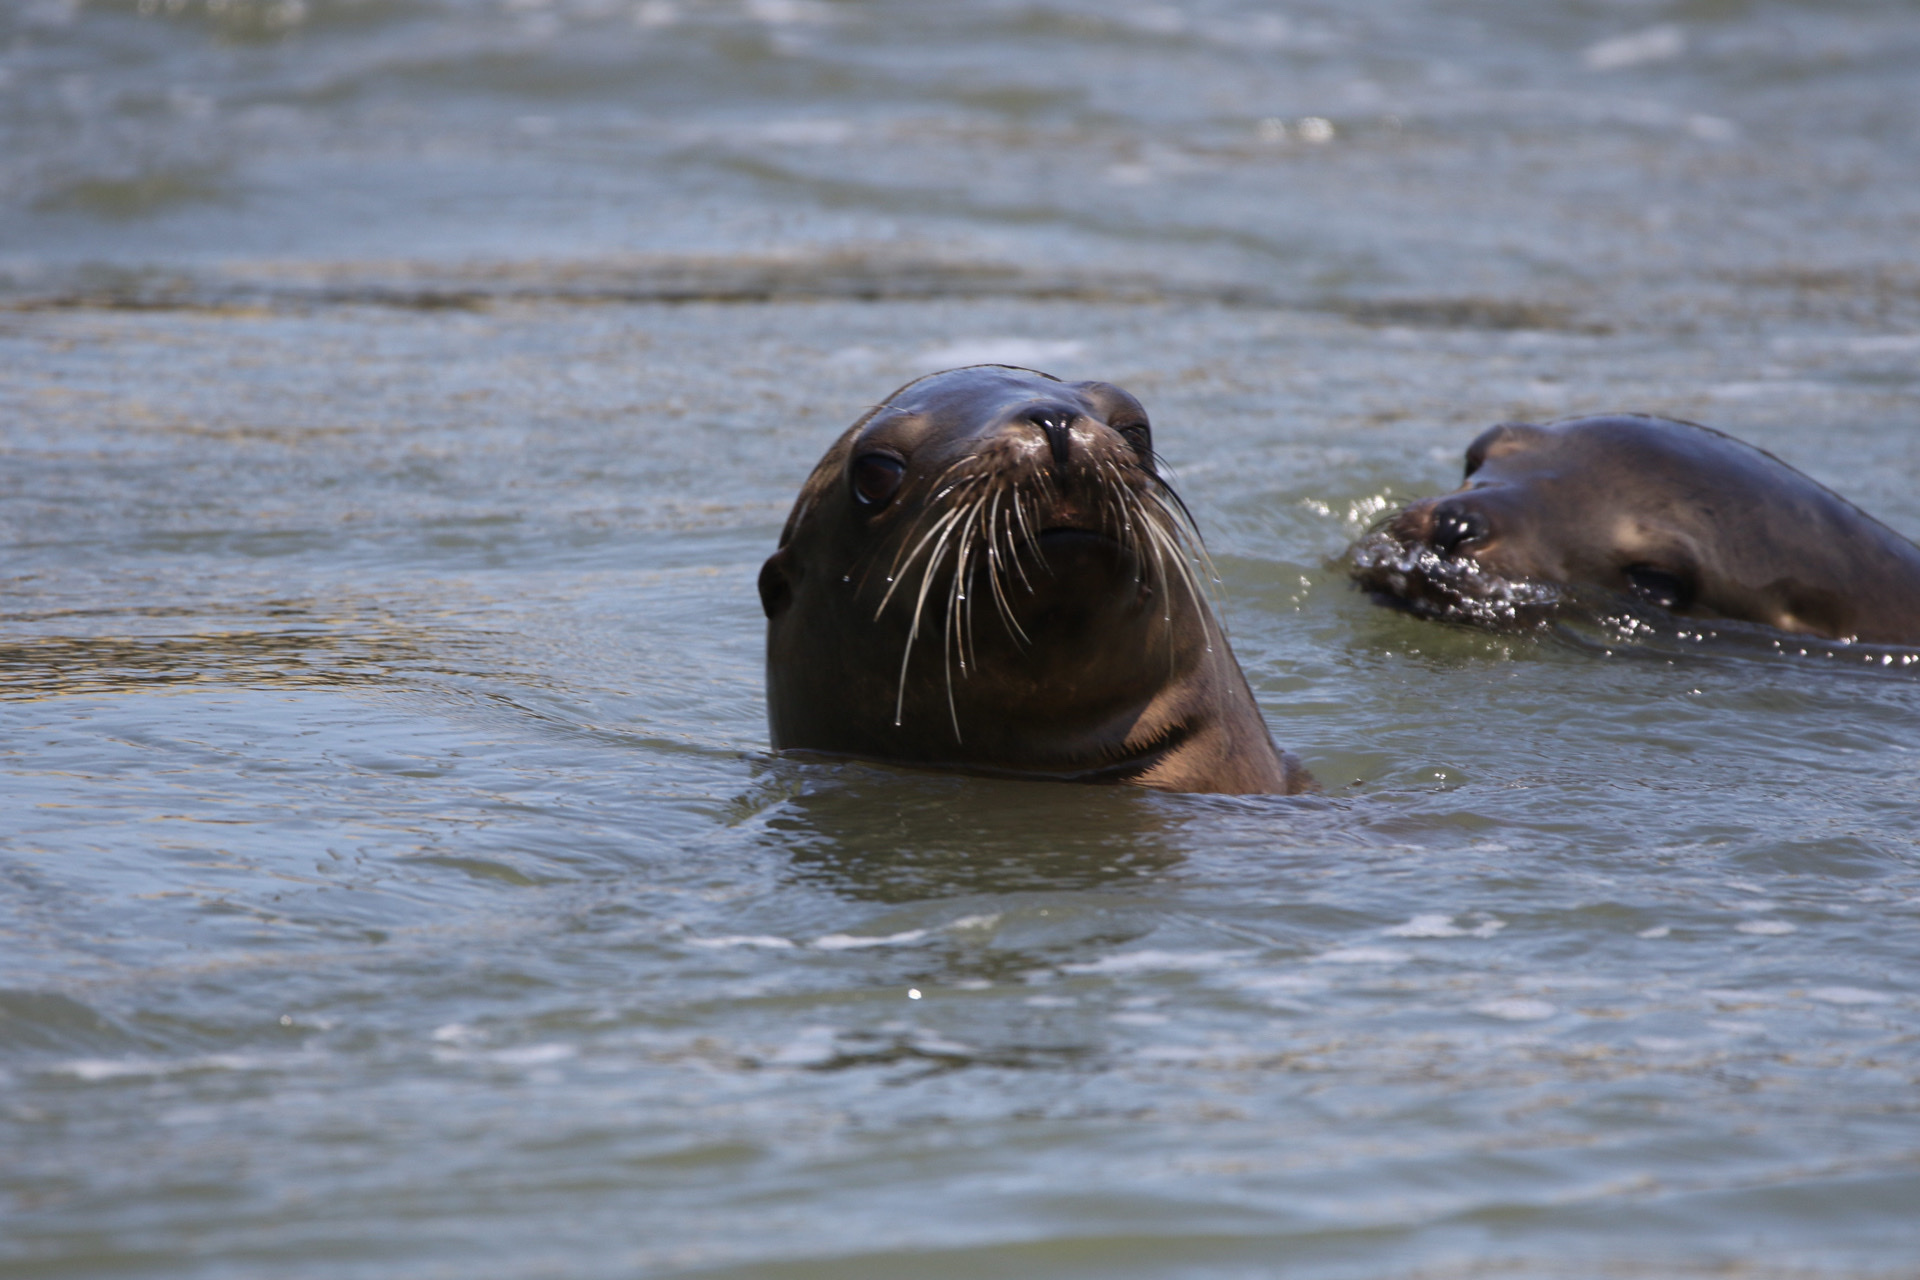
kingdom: Animalia
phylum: Chordata
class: Mammalia
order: Carnivora
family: Otariidae
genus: Zalophus
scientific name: Zalophus californianus
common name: California sea lion
